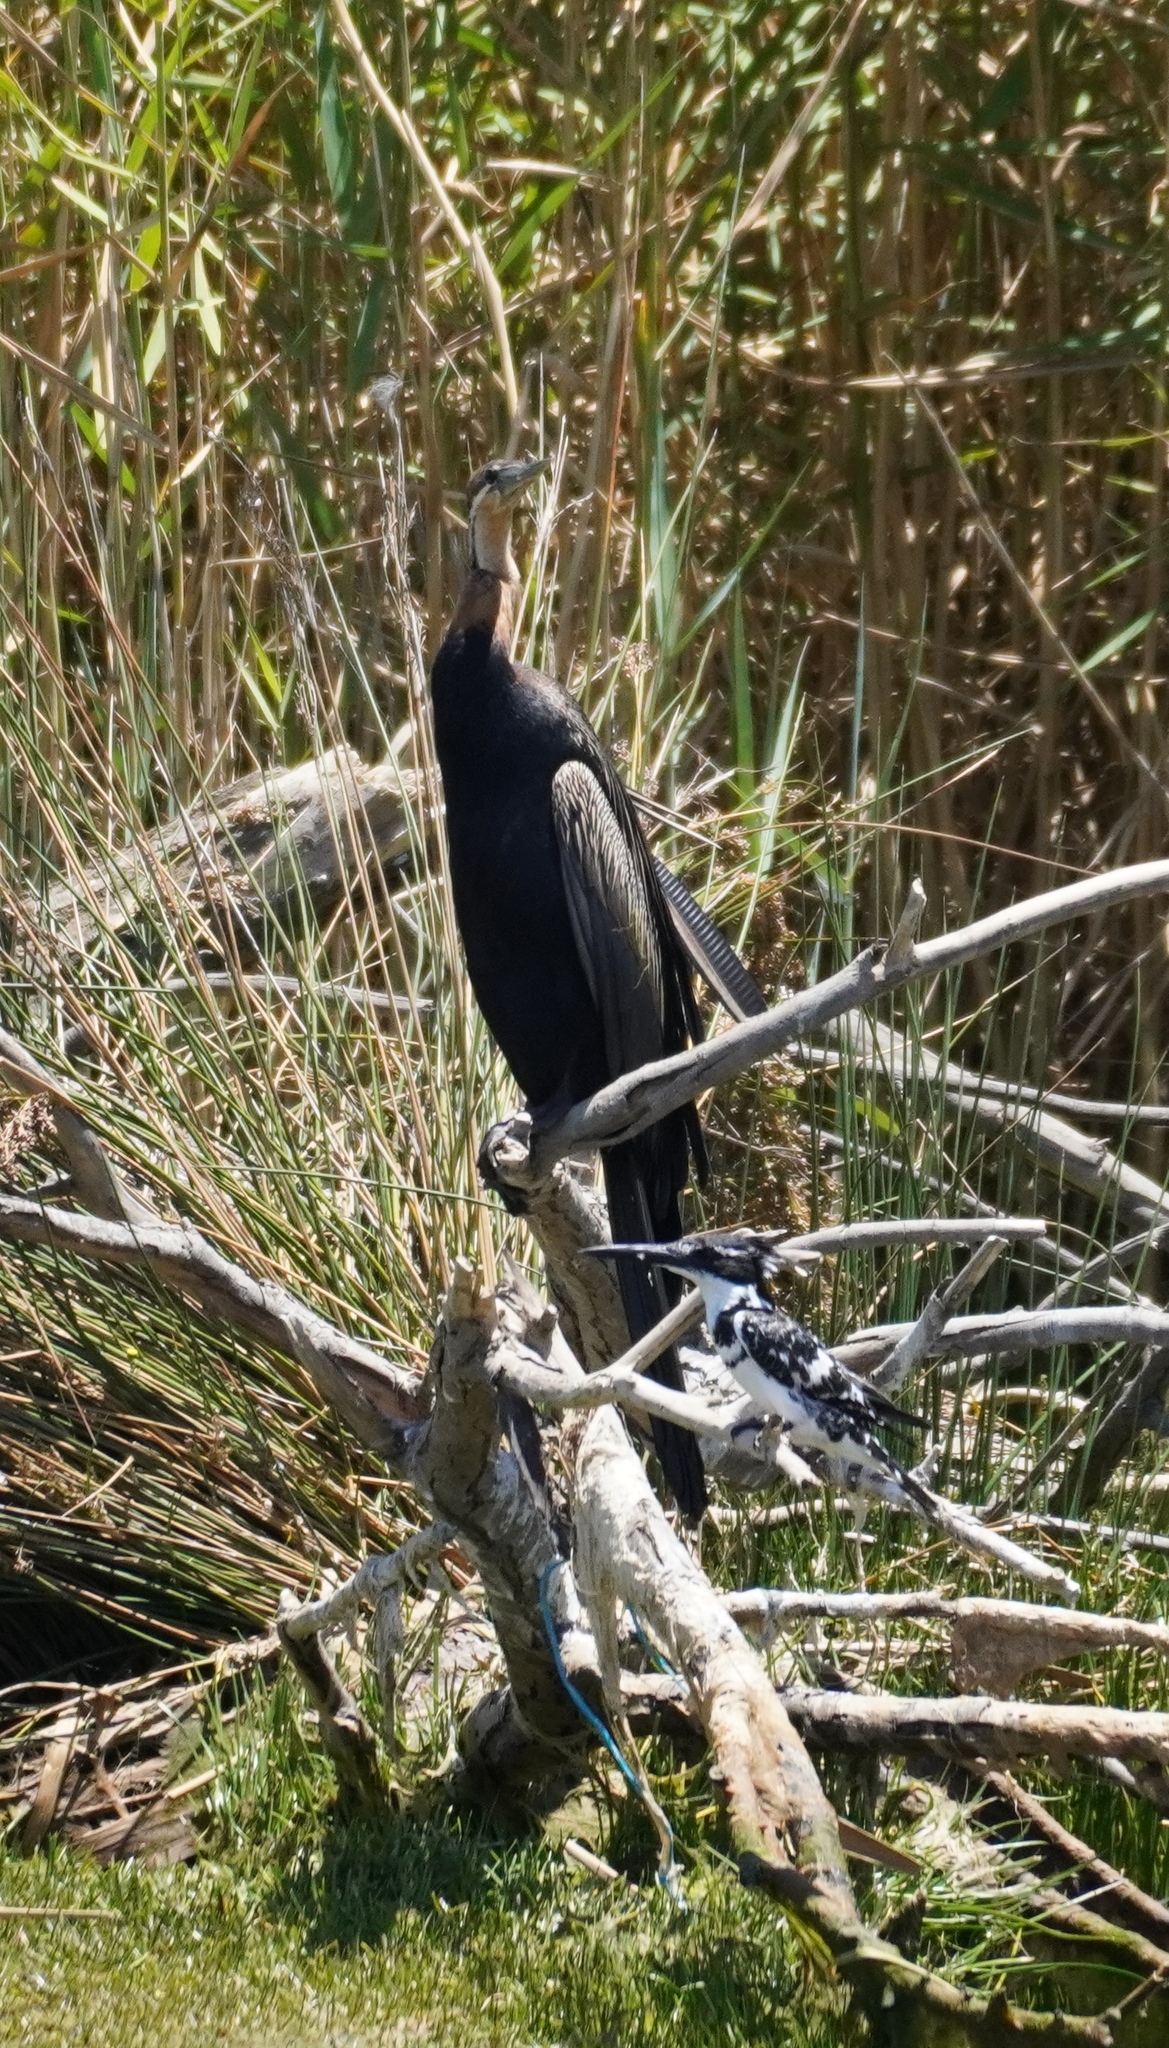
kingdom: Animalia
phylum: Chordata
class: Aves
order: Suliformes
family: Anhingidae
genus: Anhinga
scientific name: Anhinga rufa
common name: African darter
